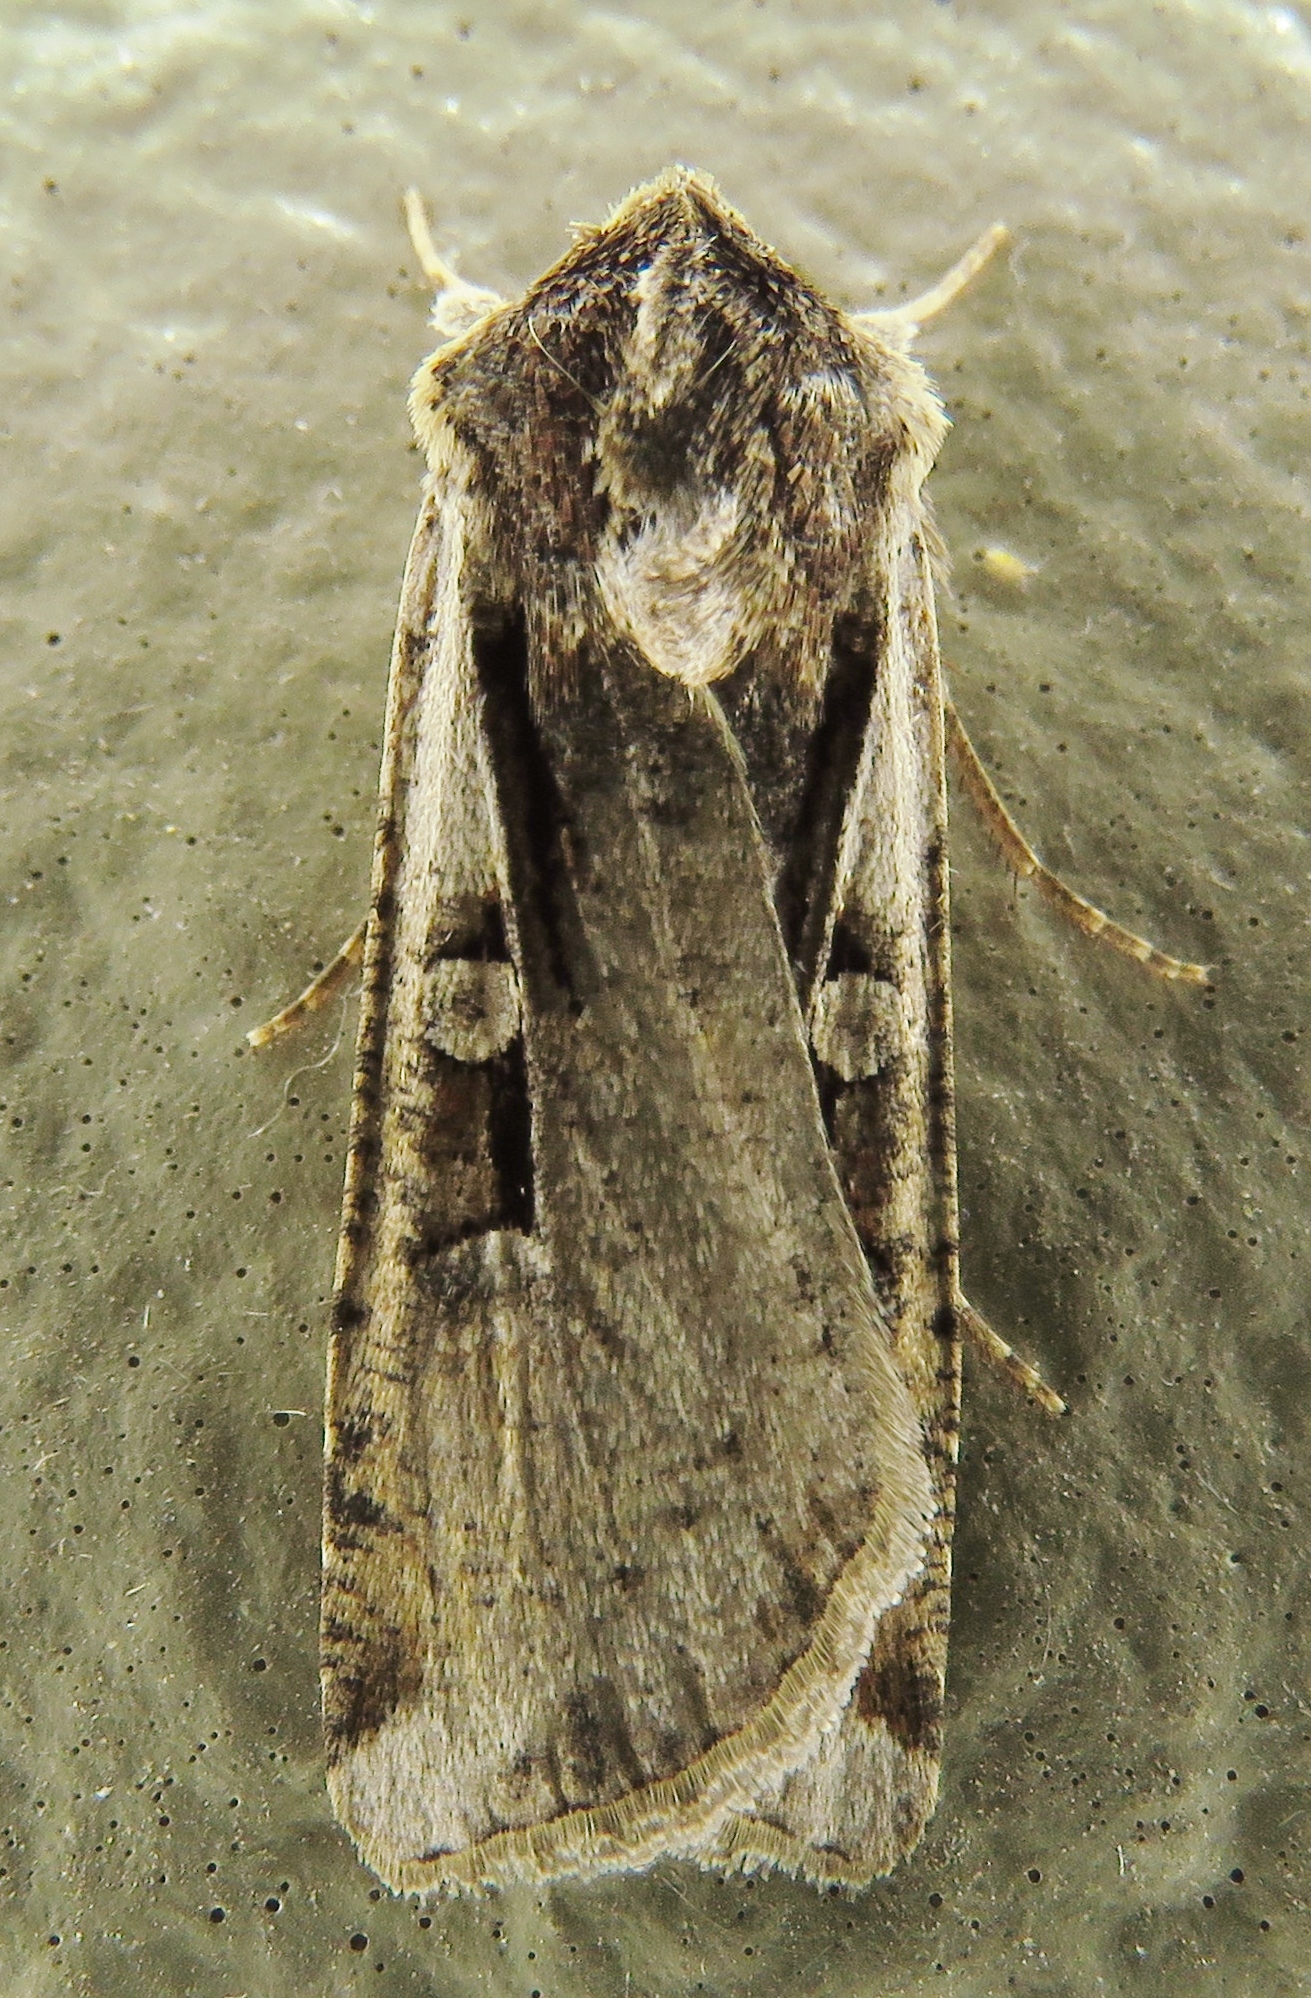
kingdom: Animalia
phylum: Arthropoda
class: Insecta
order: Lepidoptera
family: Noctuidae
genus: Hemieuxoa
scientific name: Hemieuxoa rudens
